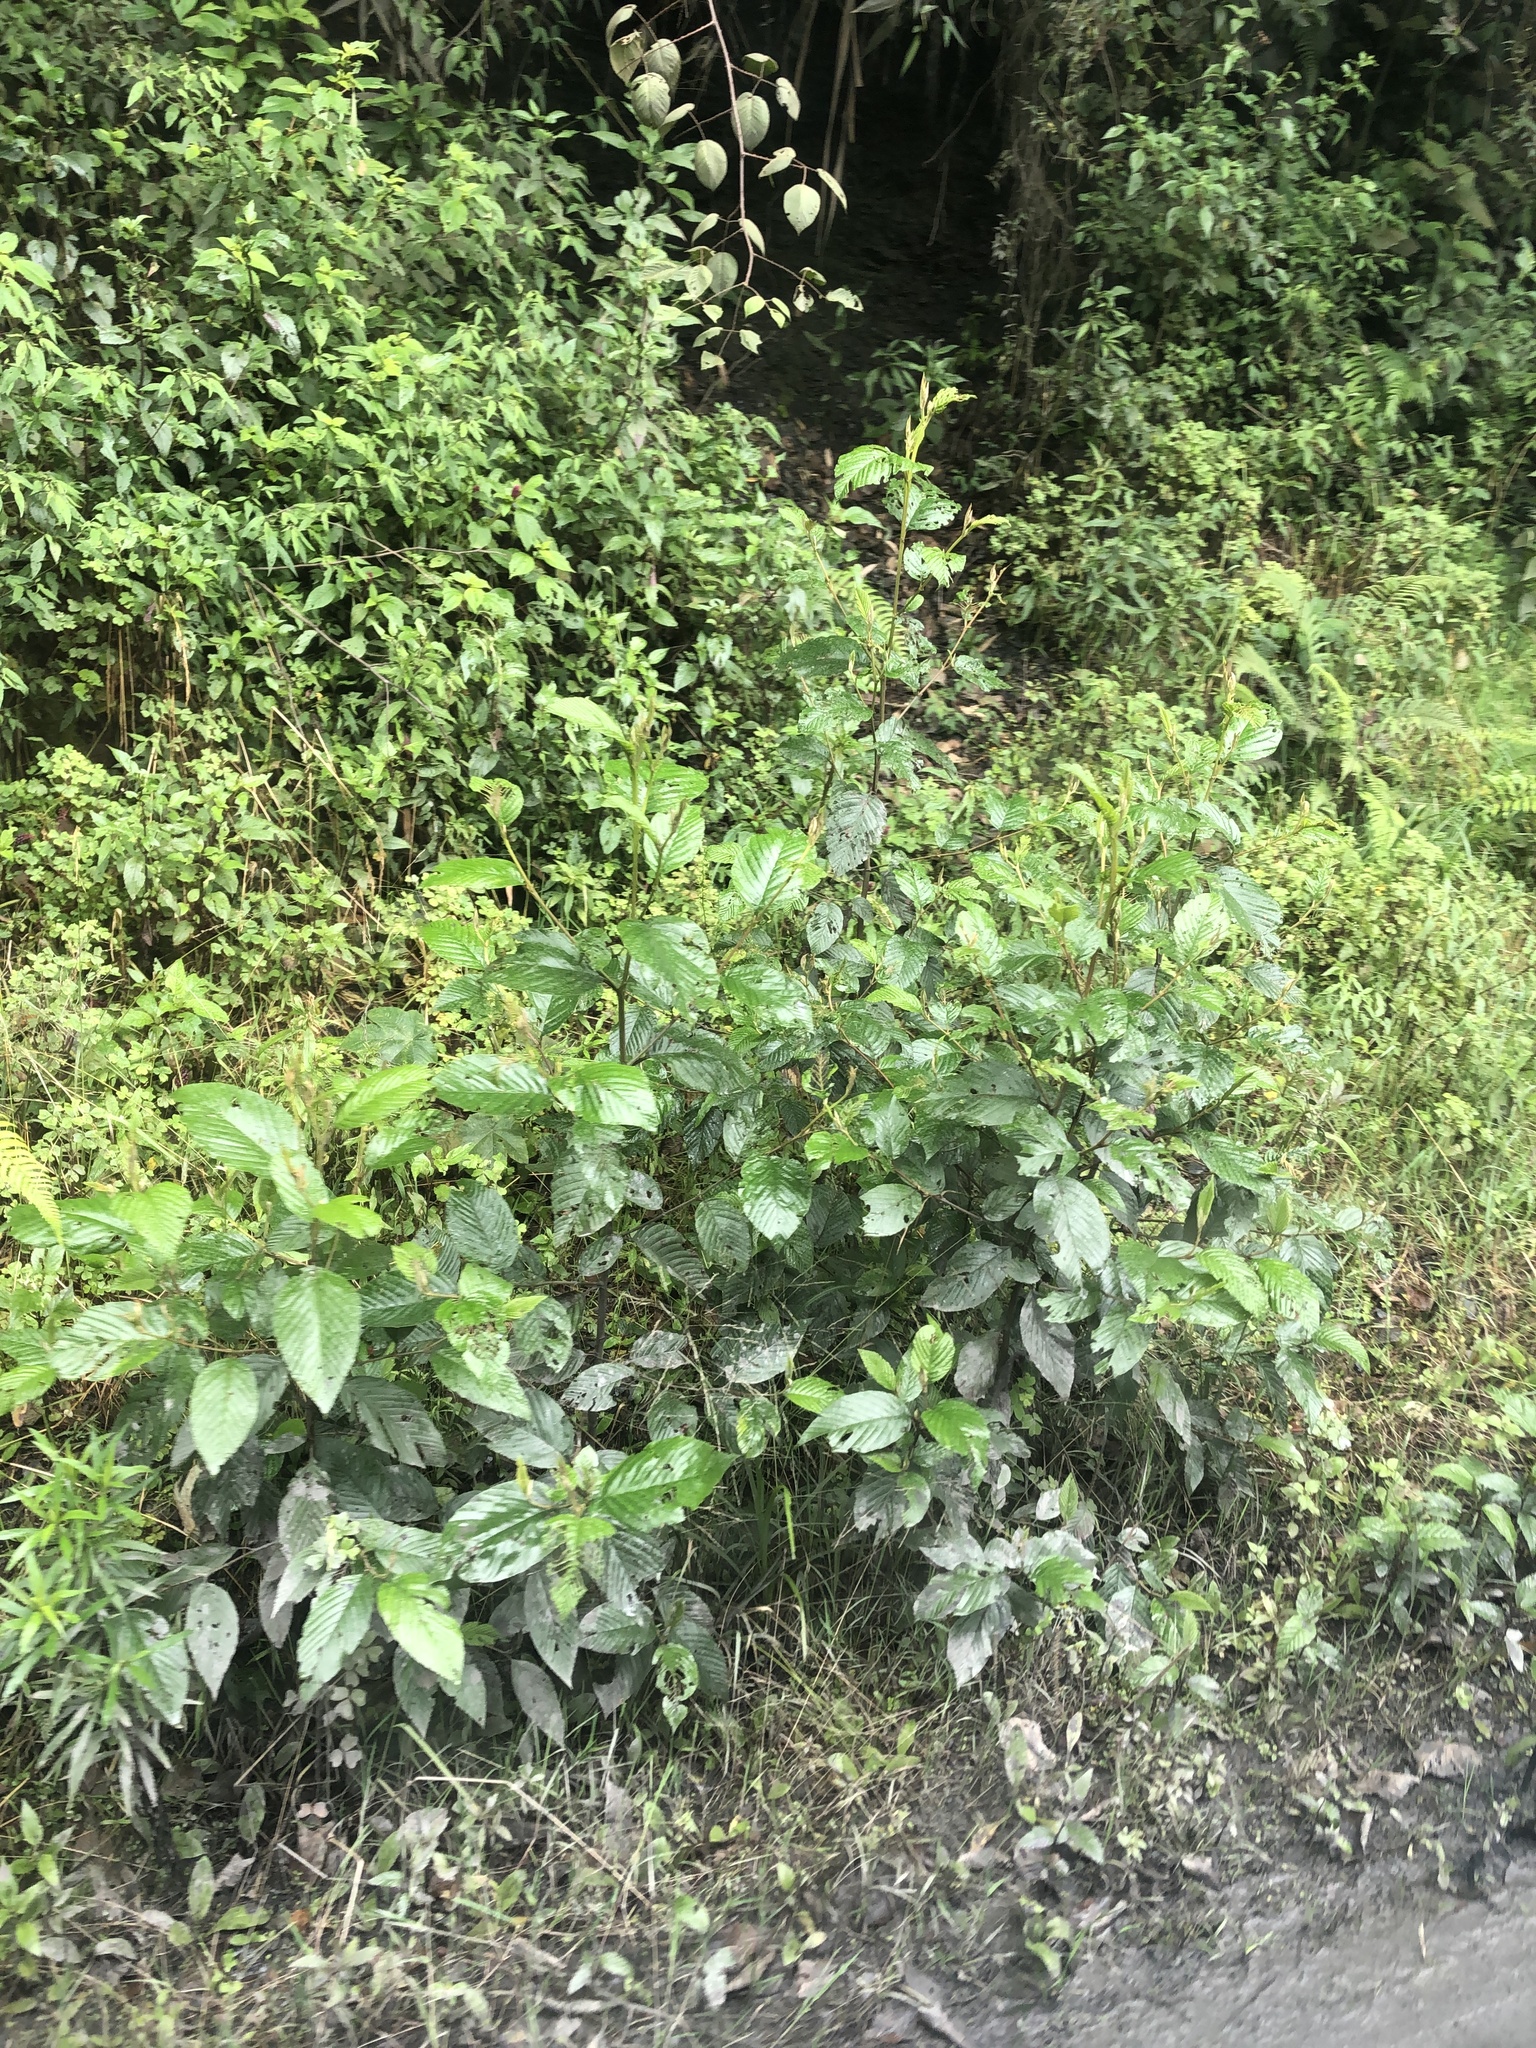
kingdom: Plantae
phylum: Tracheophyta
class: Magnoliopsida
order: Fagales
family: Betulaceae
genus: Alnus
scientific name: Alnus acuminata
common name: Alder
